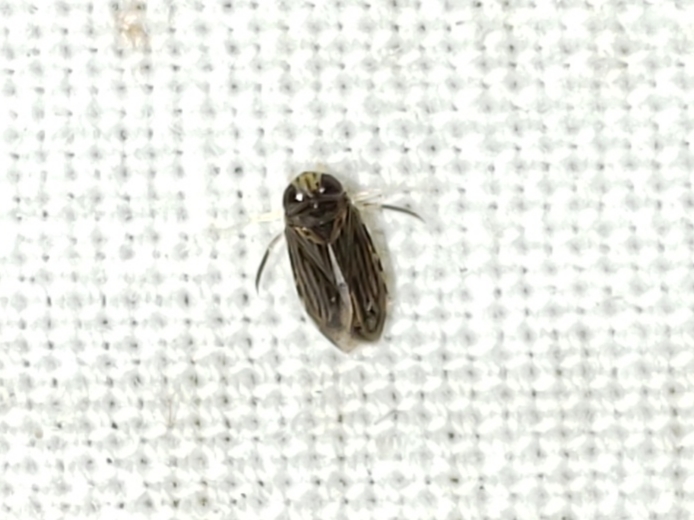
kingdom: Animalia
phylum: Arthropoda
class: Insecta
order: Hemiptera
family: Micronectidae
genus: Micronecta
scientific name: Micronecta ludibunda
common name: Asian corixid
